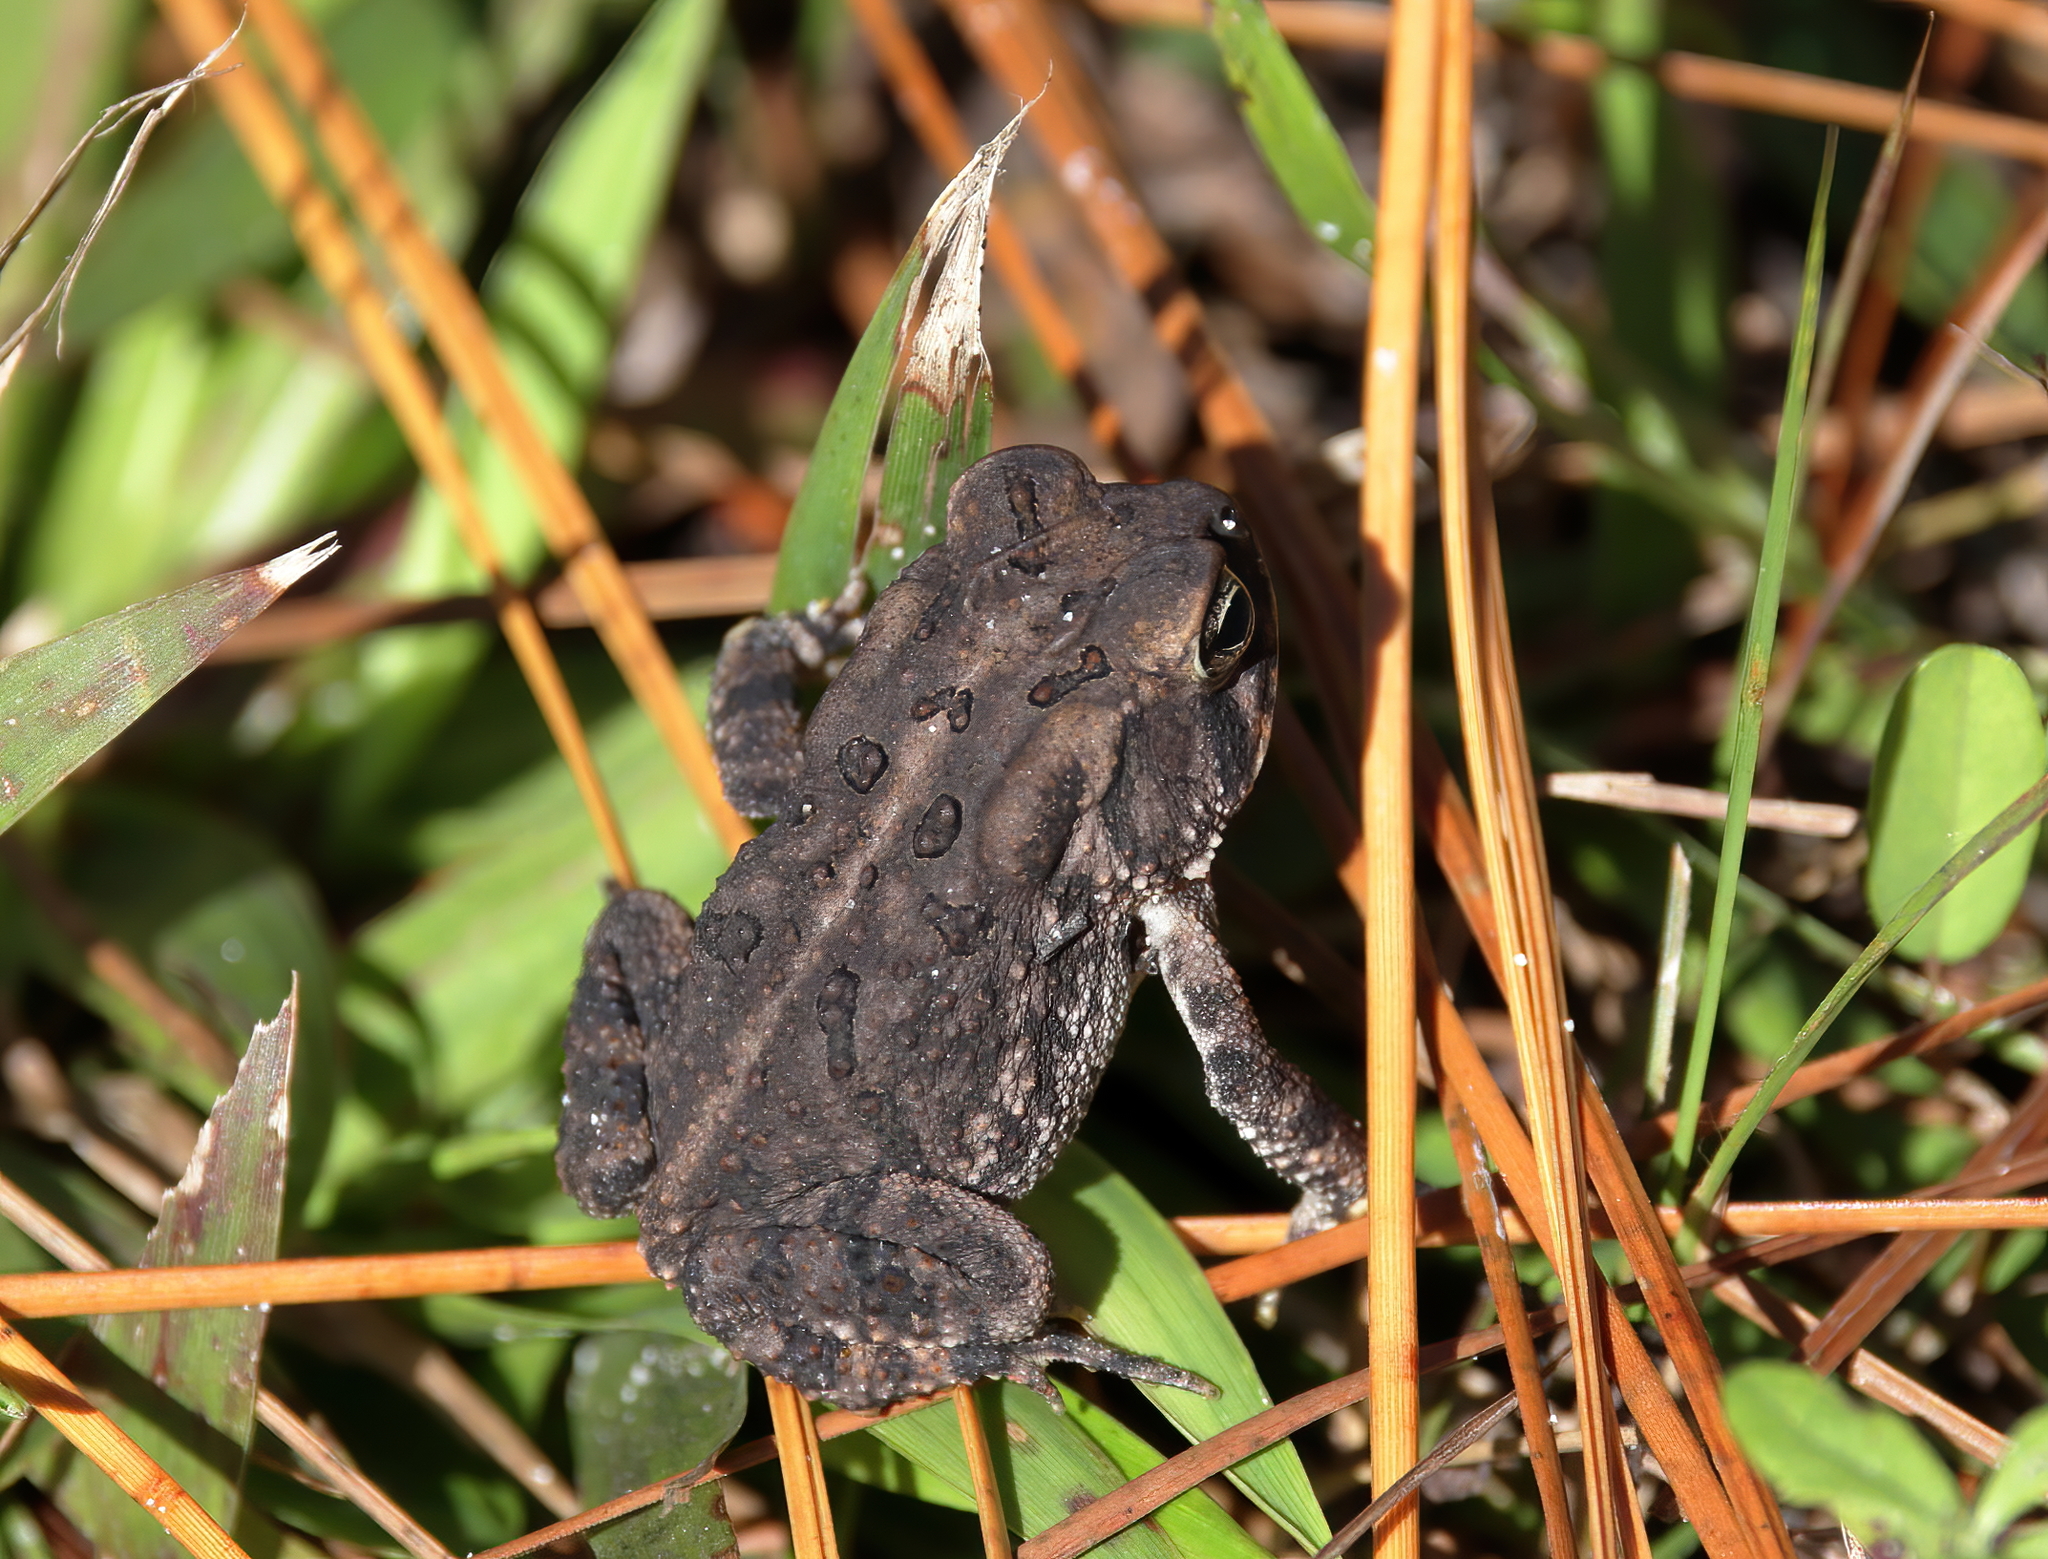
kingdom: Animalia
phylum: Chordata
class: Amphibia
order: Anura
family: Bufonidae
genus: Anaxyrus
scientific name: Anaxyrus terrestris
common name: Southern toad
